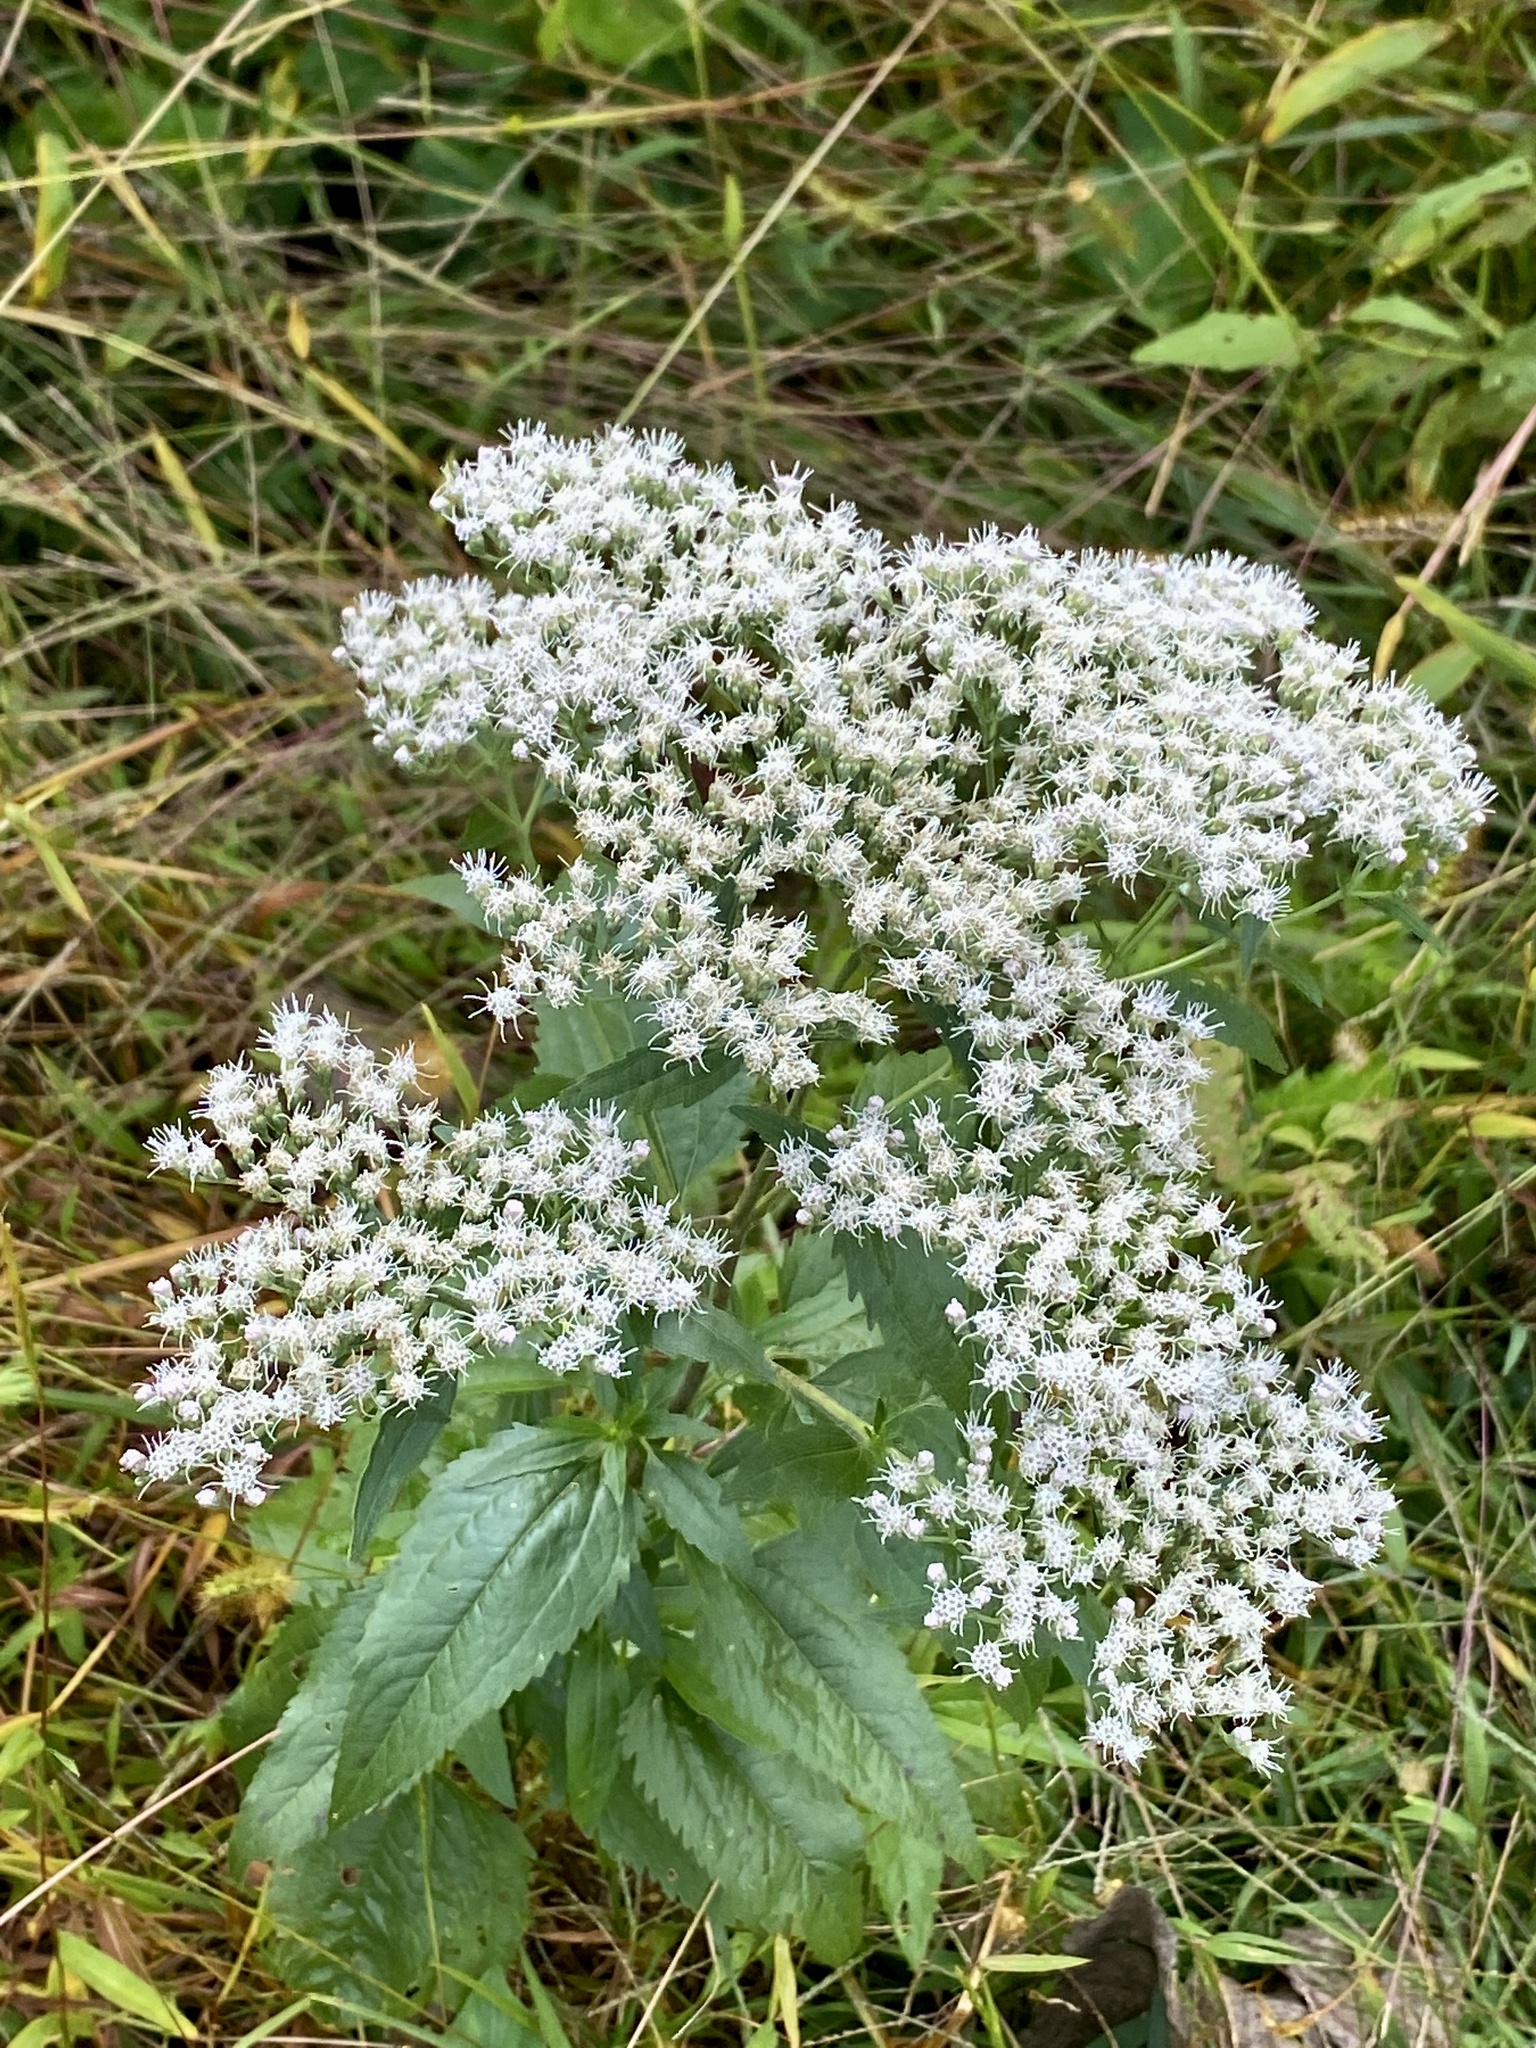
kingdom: Plantae
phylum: Tracheophyta
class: Magnoliopsida
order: Asterales
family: Asteraceae
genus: Eupatorium
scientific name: Eupatorium serotinum
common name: Late boneset
